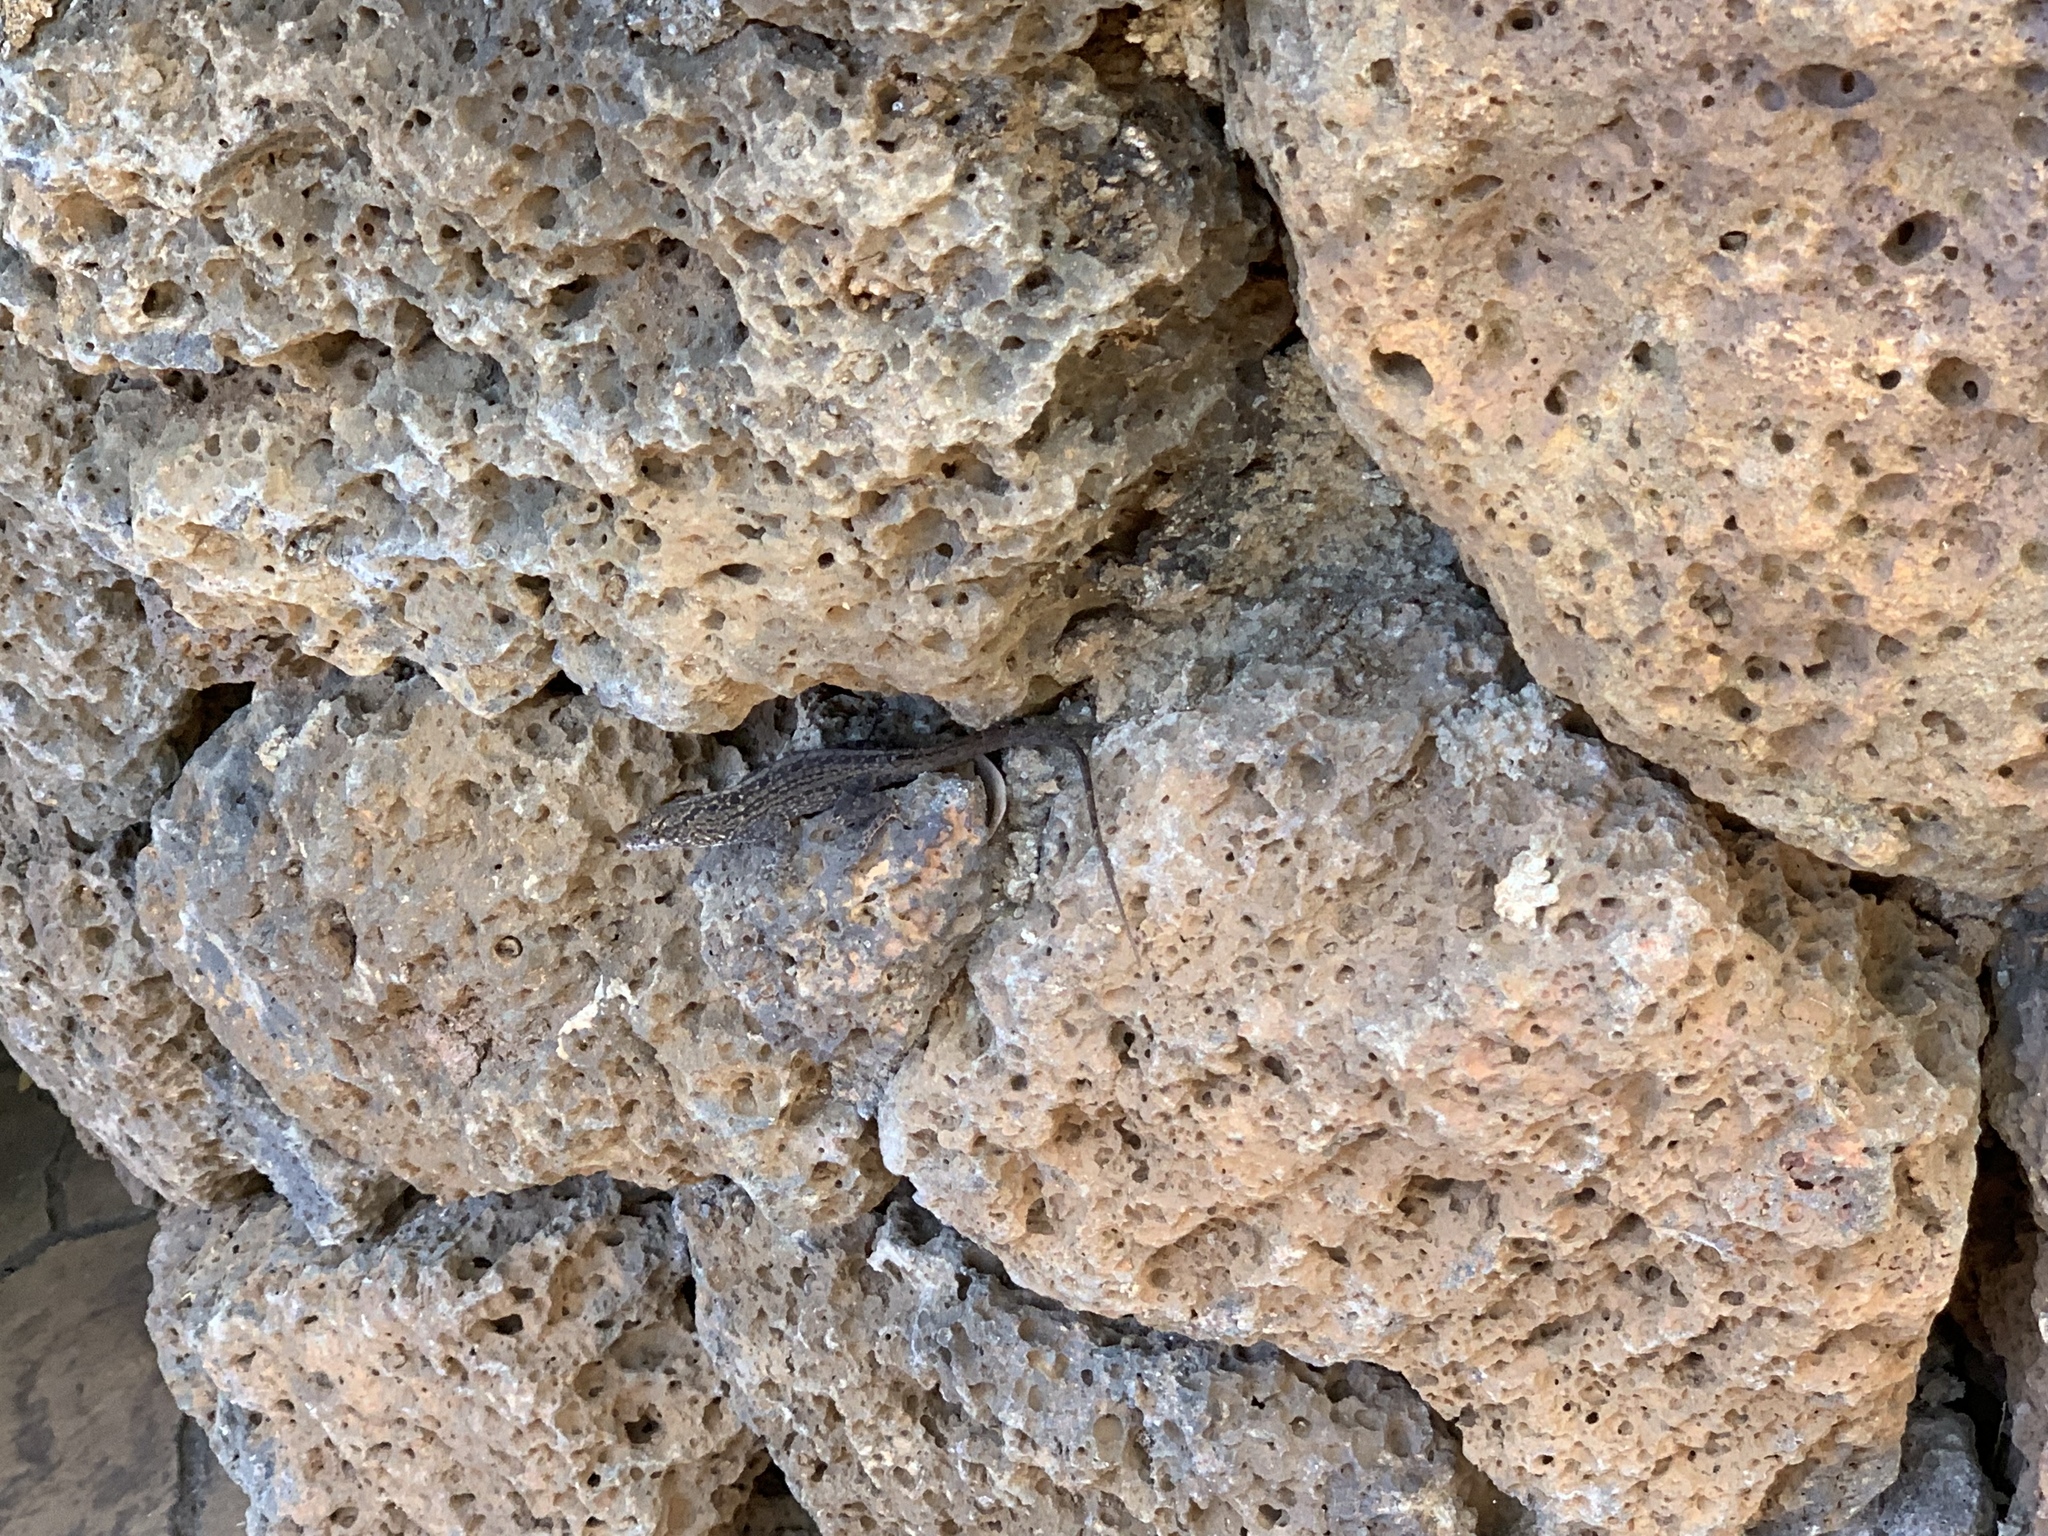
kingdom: Animalia
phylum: Chordata
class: Squamata
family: Dactyloidae
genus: Anolis
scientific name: Anolis sagrei
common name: Brown anole
